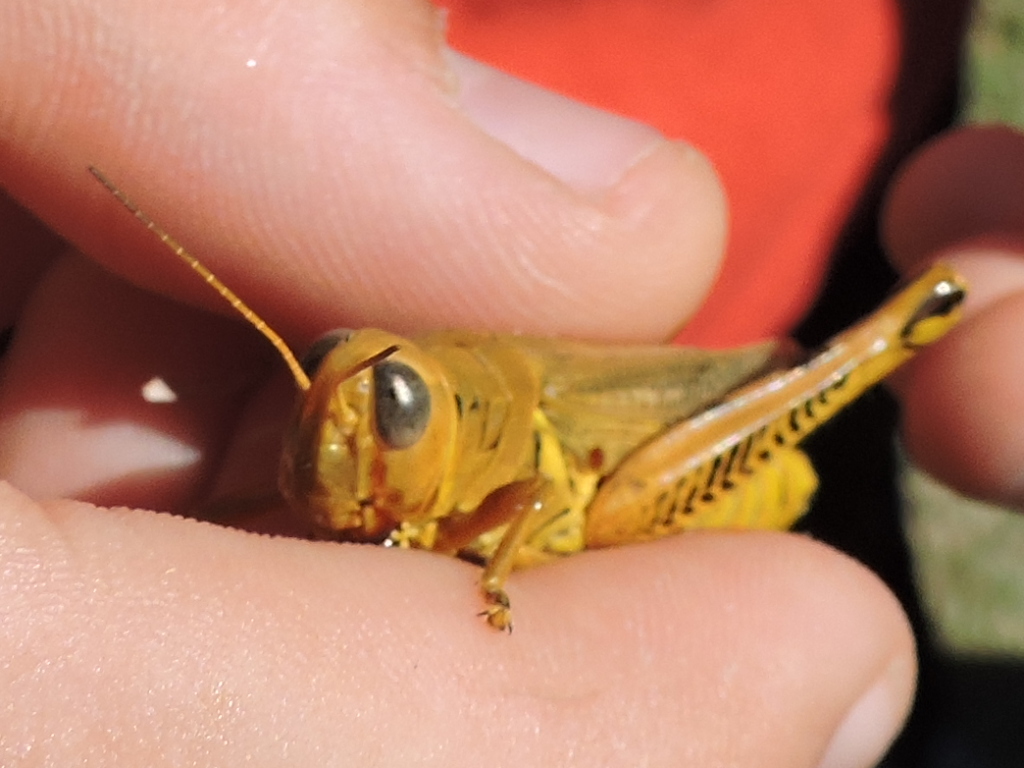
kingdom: Animalia
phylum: Arthropoda
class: Insecta
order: Orthoptera
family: Acrididae
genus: Melanoplus
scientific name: Melanoplus differentialis
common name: Differential grasshopper
